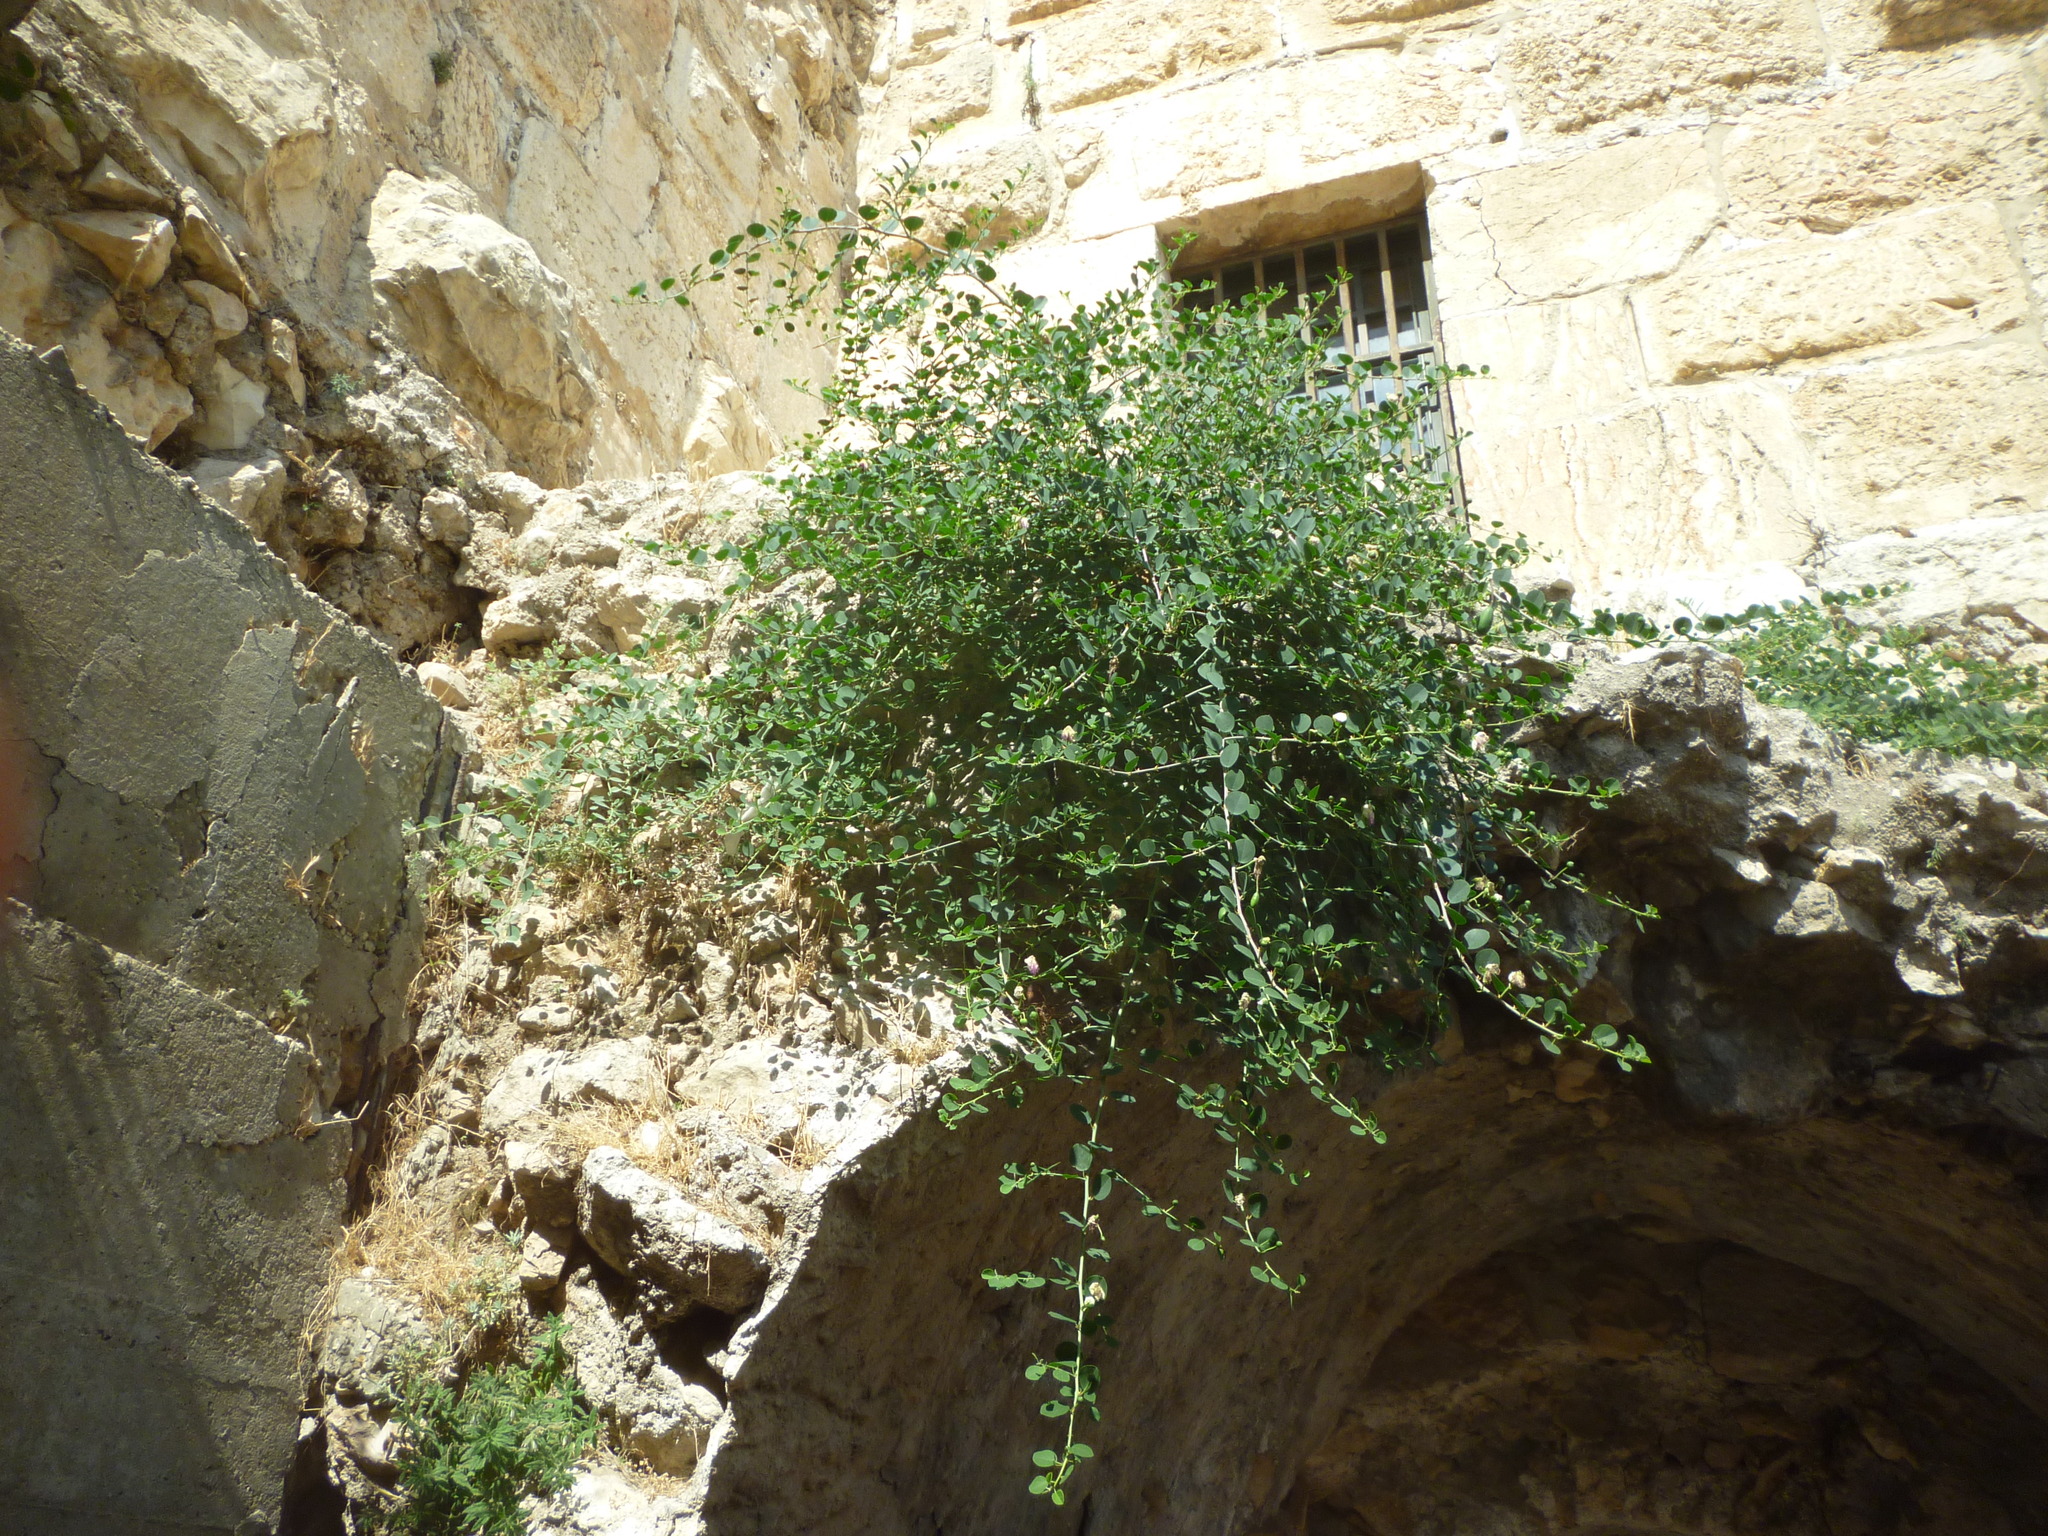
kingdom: Plantae
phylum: Tracheophyta
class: Magnoliopsida
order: Brassicales
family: Capparaceae
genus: Capparis
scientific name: Capparis spinosa
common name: Caper
